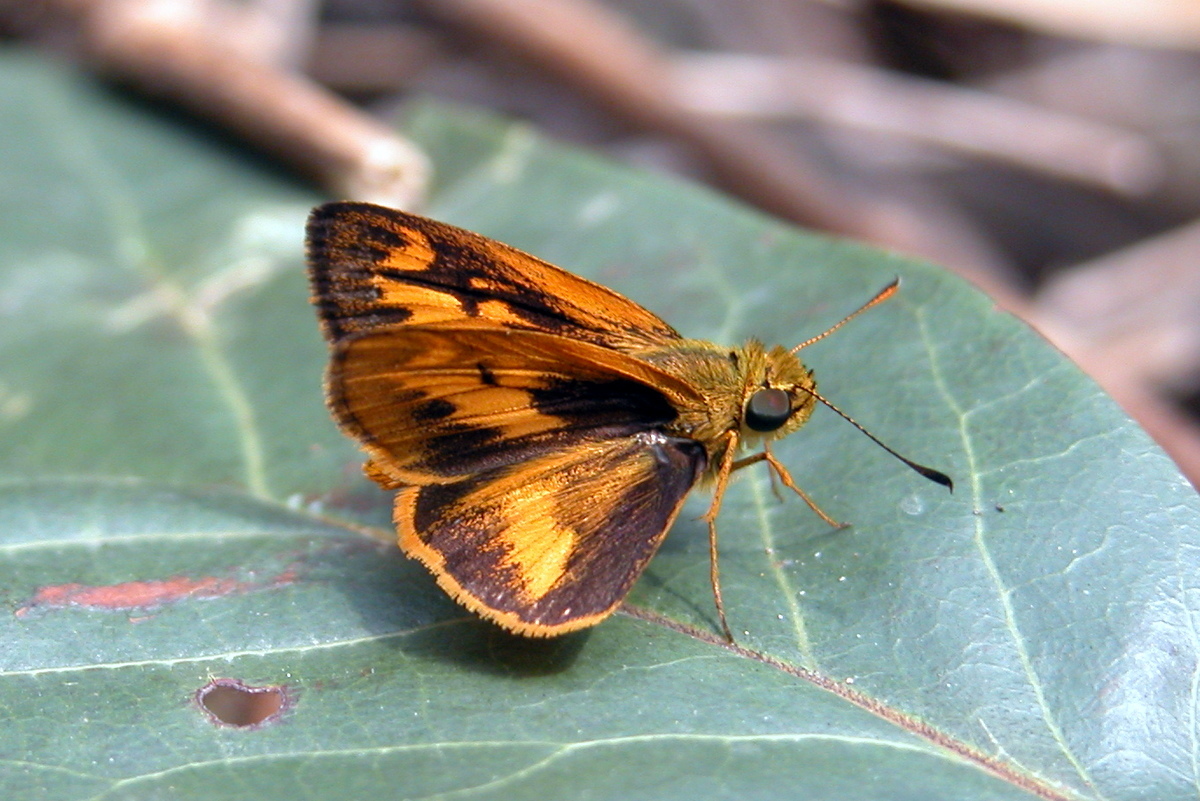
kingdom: Animalia
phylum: Arthropoda
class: Insecta
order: Lepidoptera
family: Hesperiidae
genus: Oriens
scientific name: Oriens goloides
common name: Smaller dartlet
